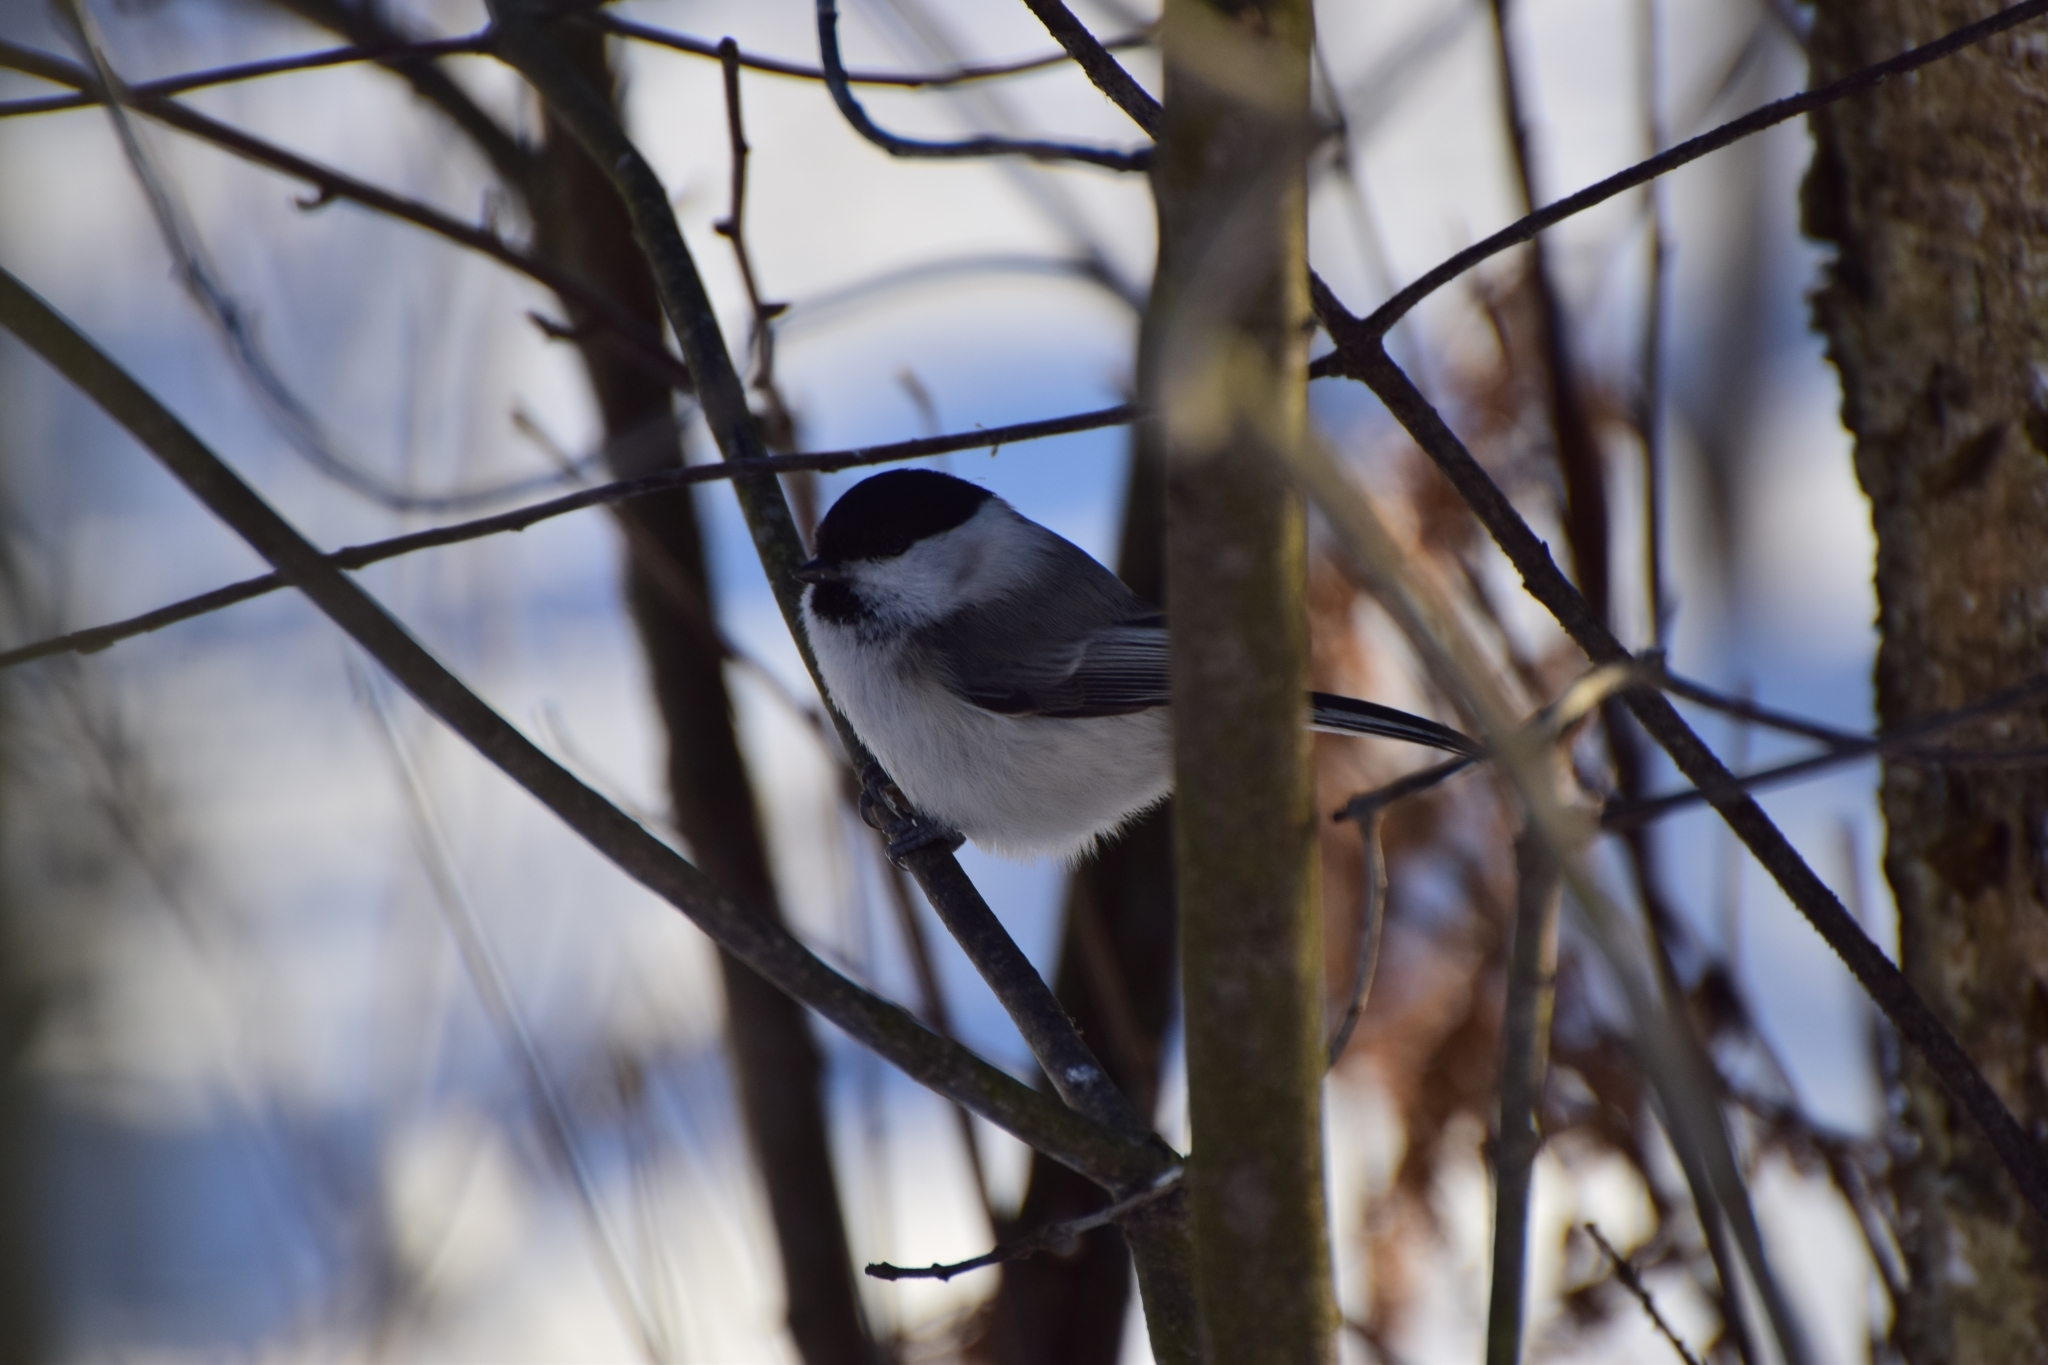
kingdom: Animalia
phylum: Chordata
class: Aves
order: Passeriformes
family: Paridae
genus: Poecile
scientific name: Poecile montanus
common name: Willow tit
